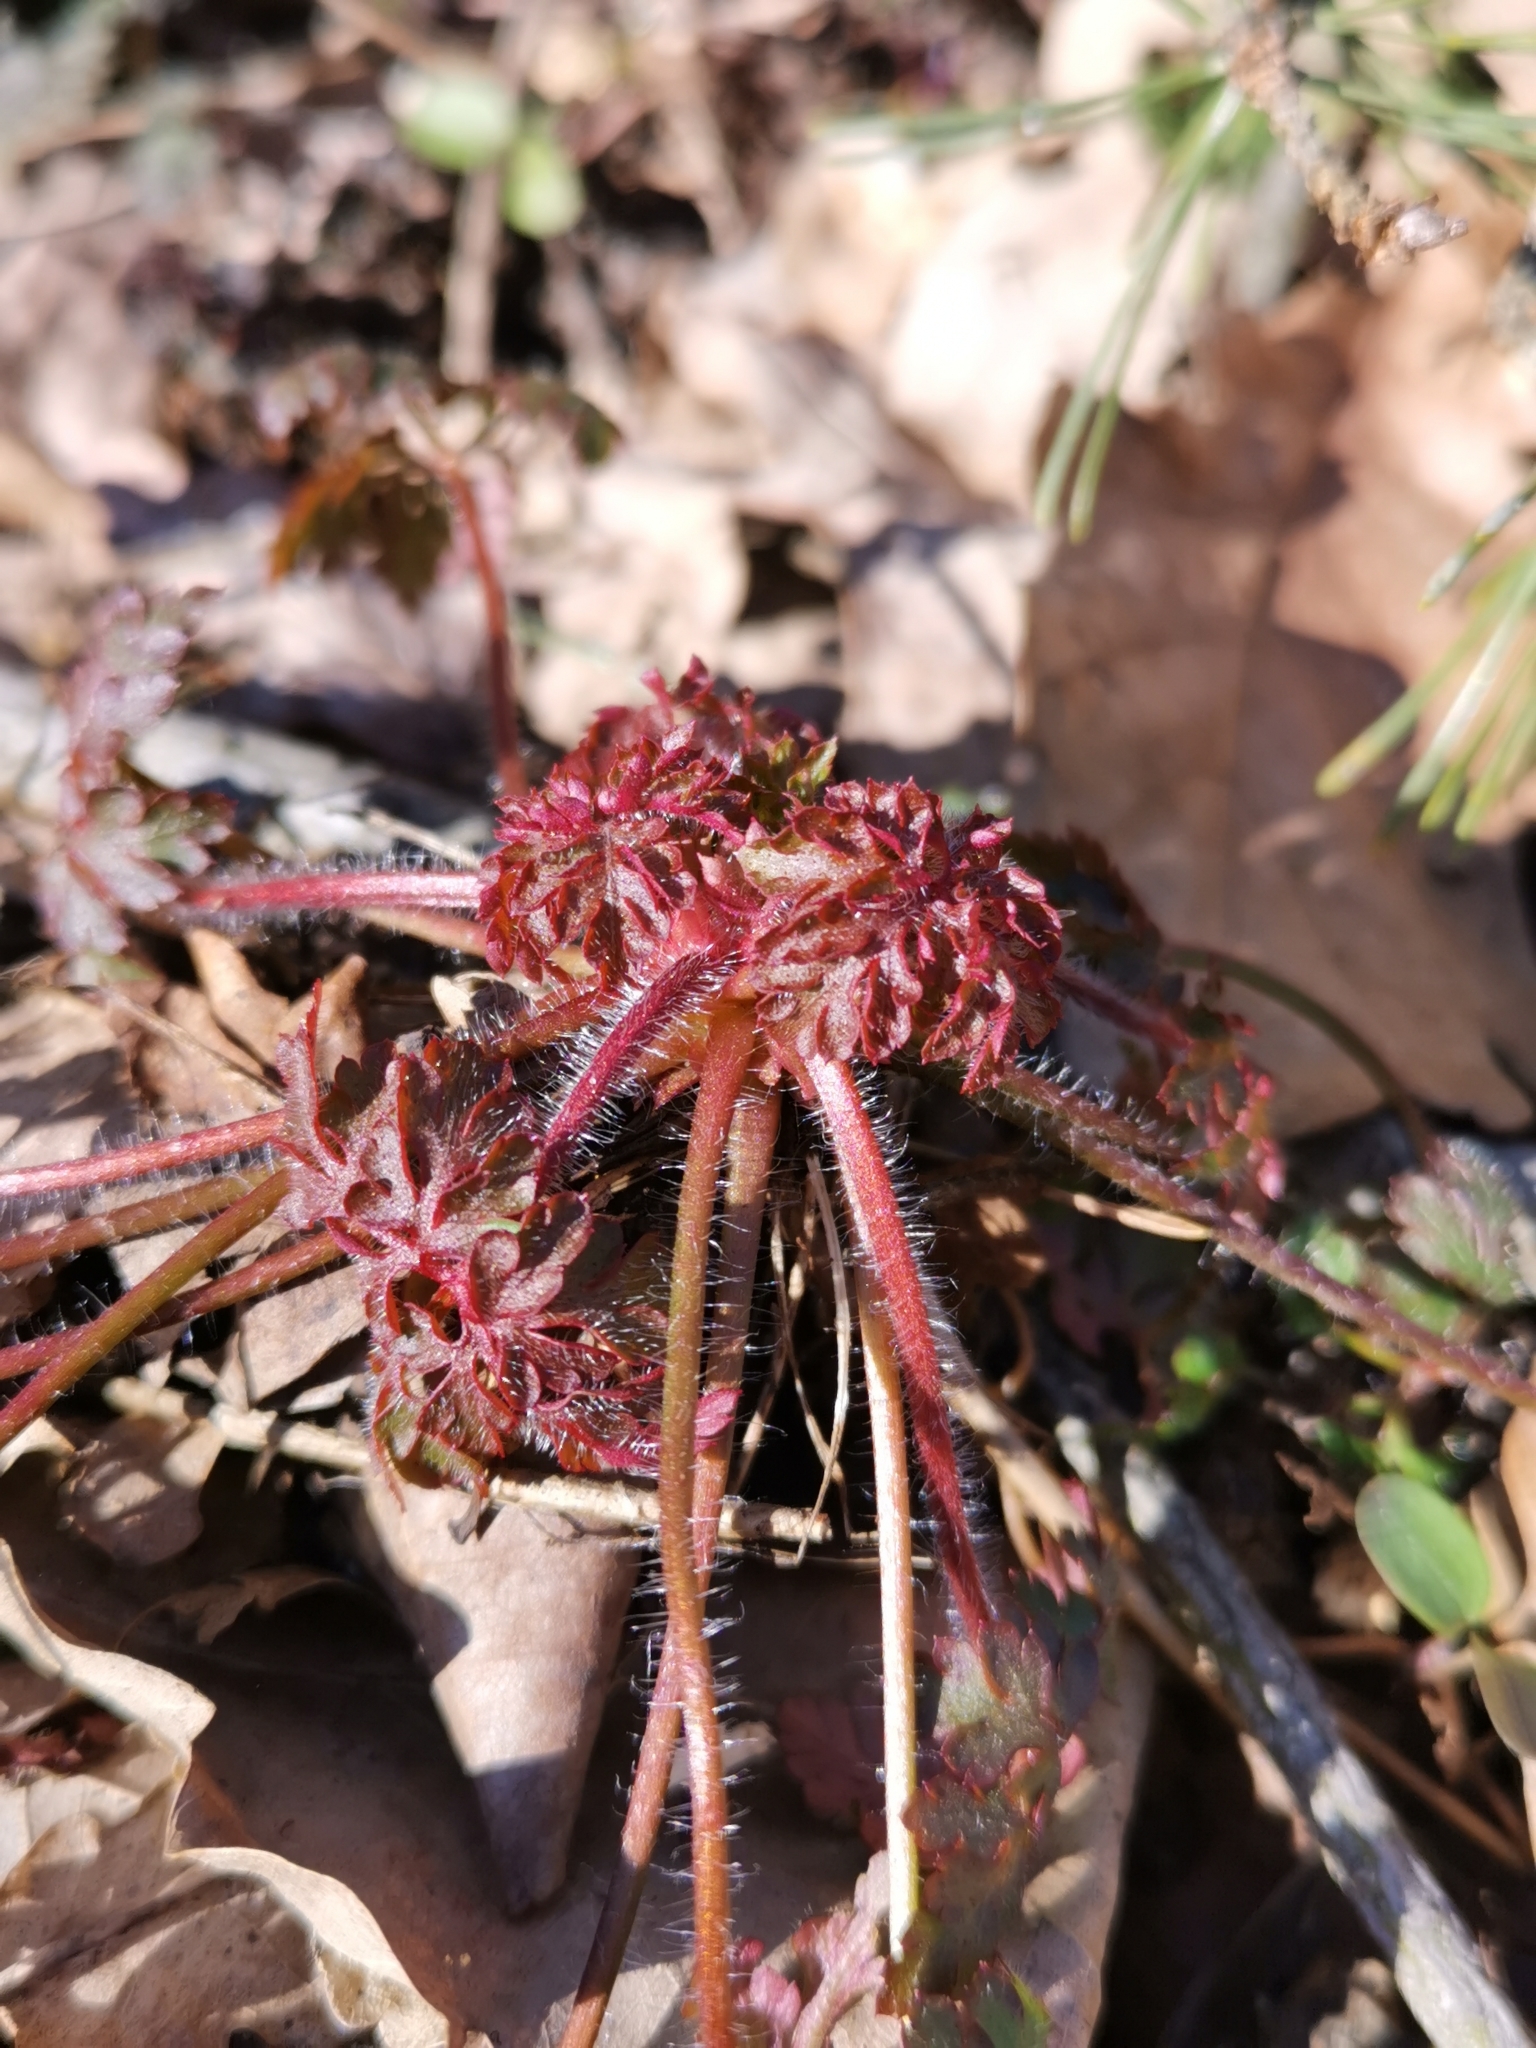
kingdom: Plantae
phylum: Tracheophyta
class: Magnoliopsida
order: Geraniales
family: Geraniaceae
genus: Geranium
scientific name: Geranium robertianum
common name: Herb-robert
